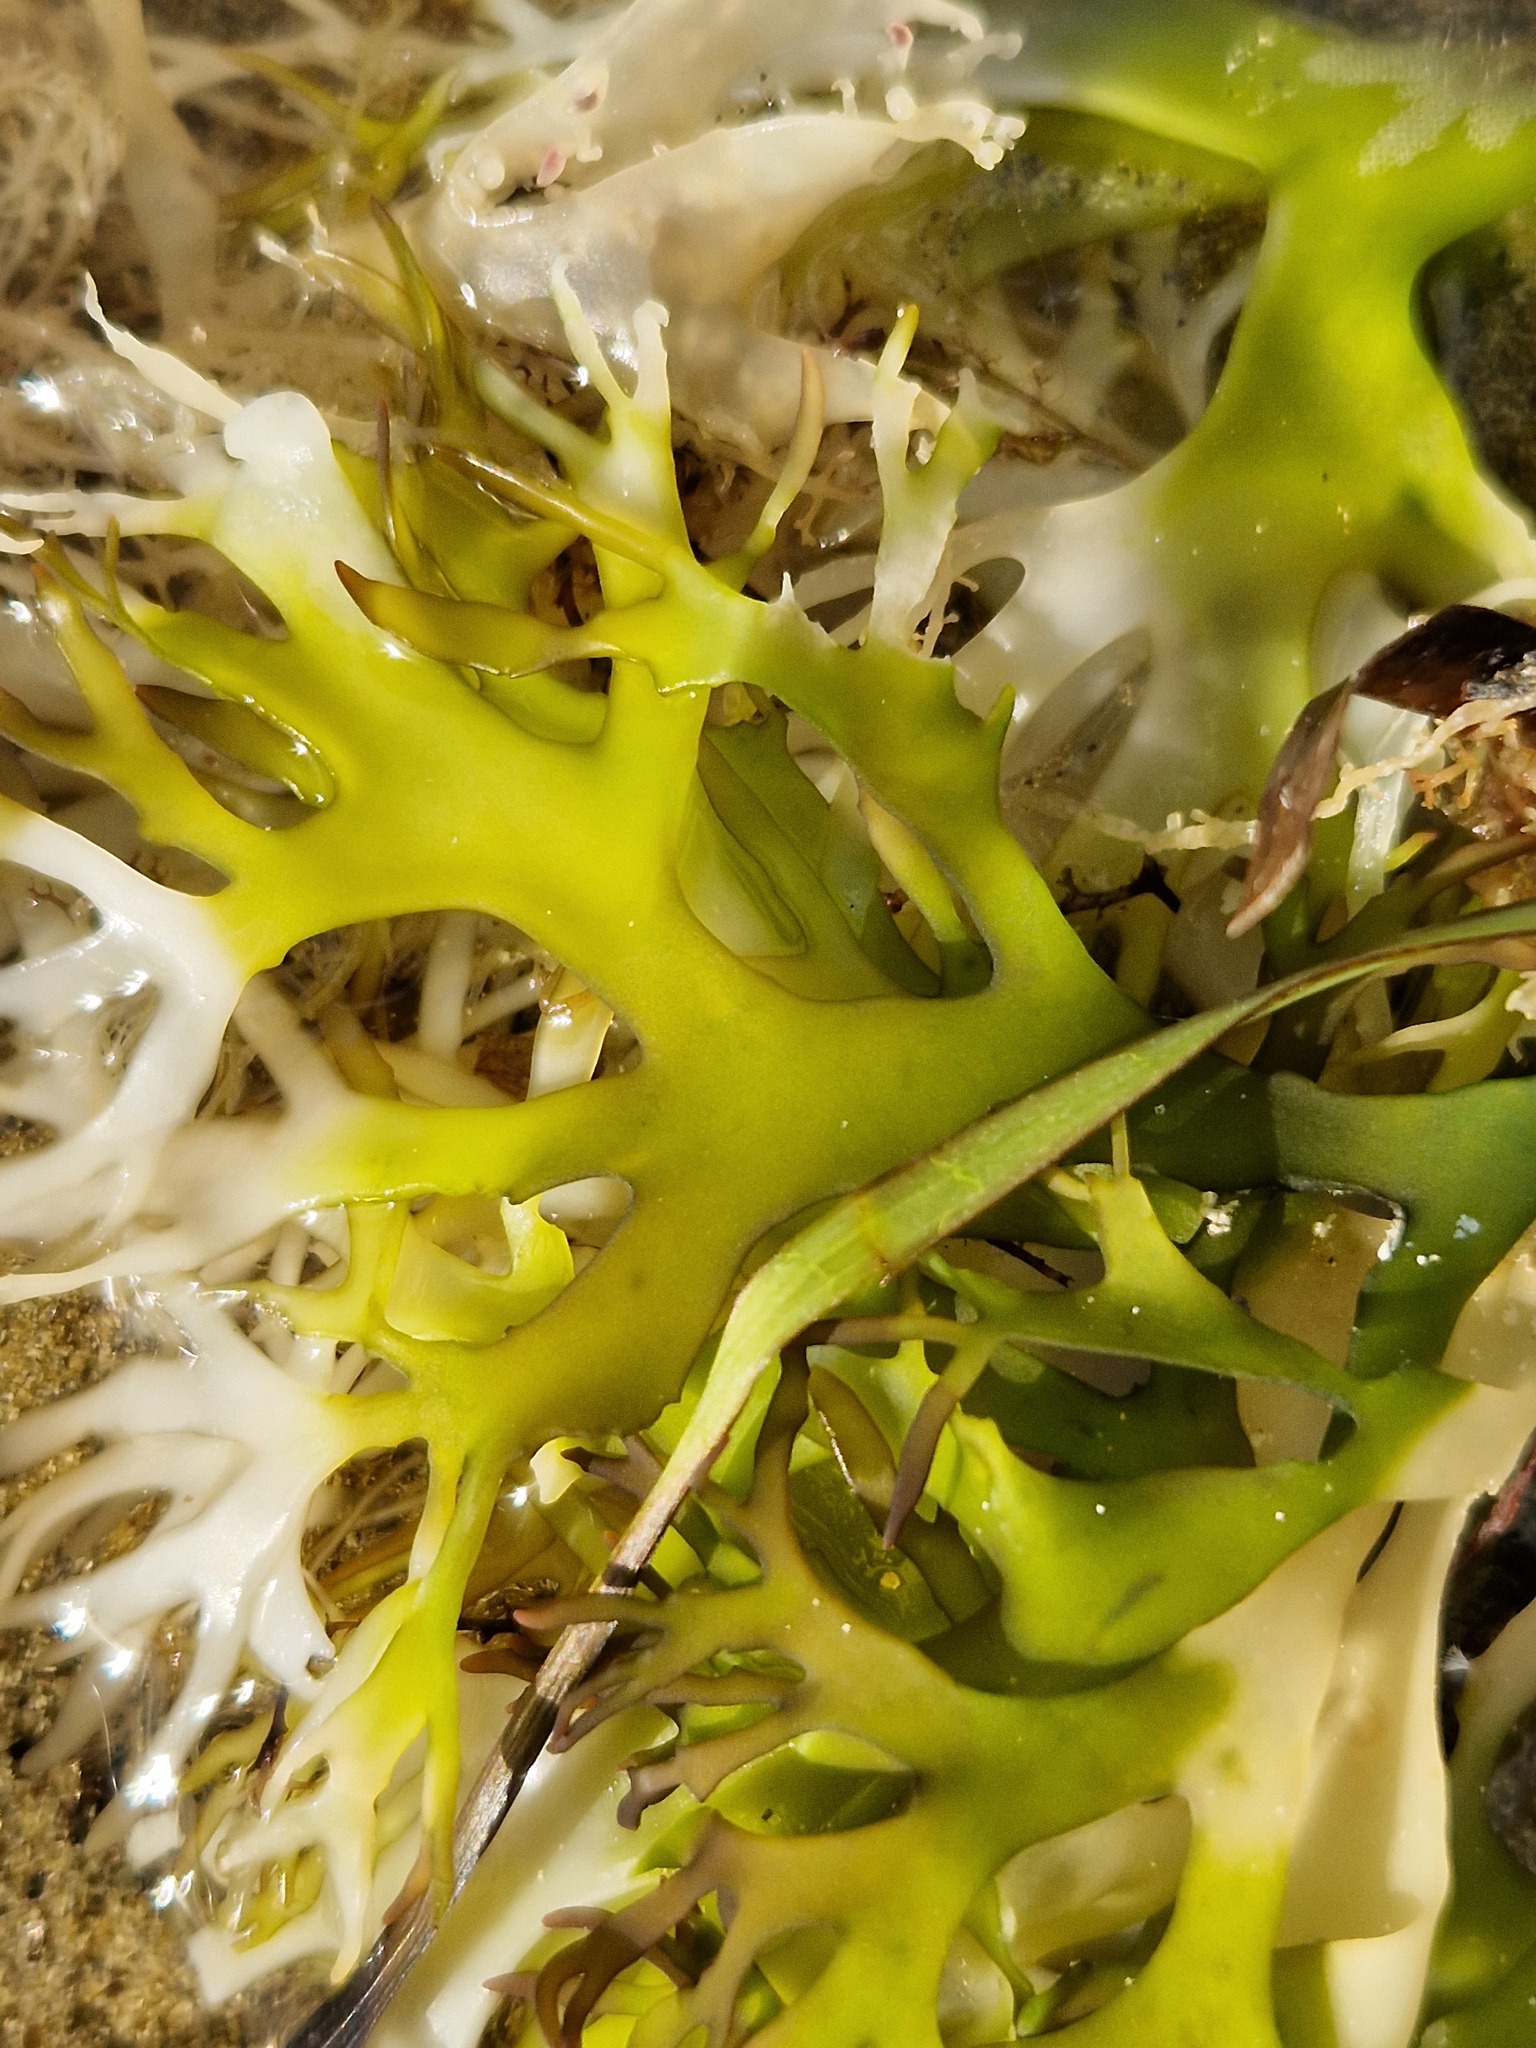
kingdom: Plantae
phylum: Rhodophyta
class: Florideophyceae
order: Gigartinales
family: Gigartinaceae
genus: Chondrus
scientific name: Chondrus crispus
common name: Carrageen
